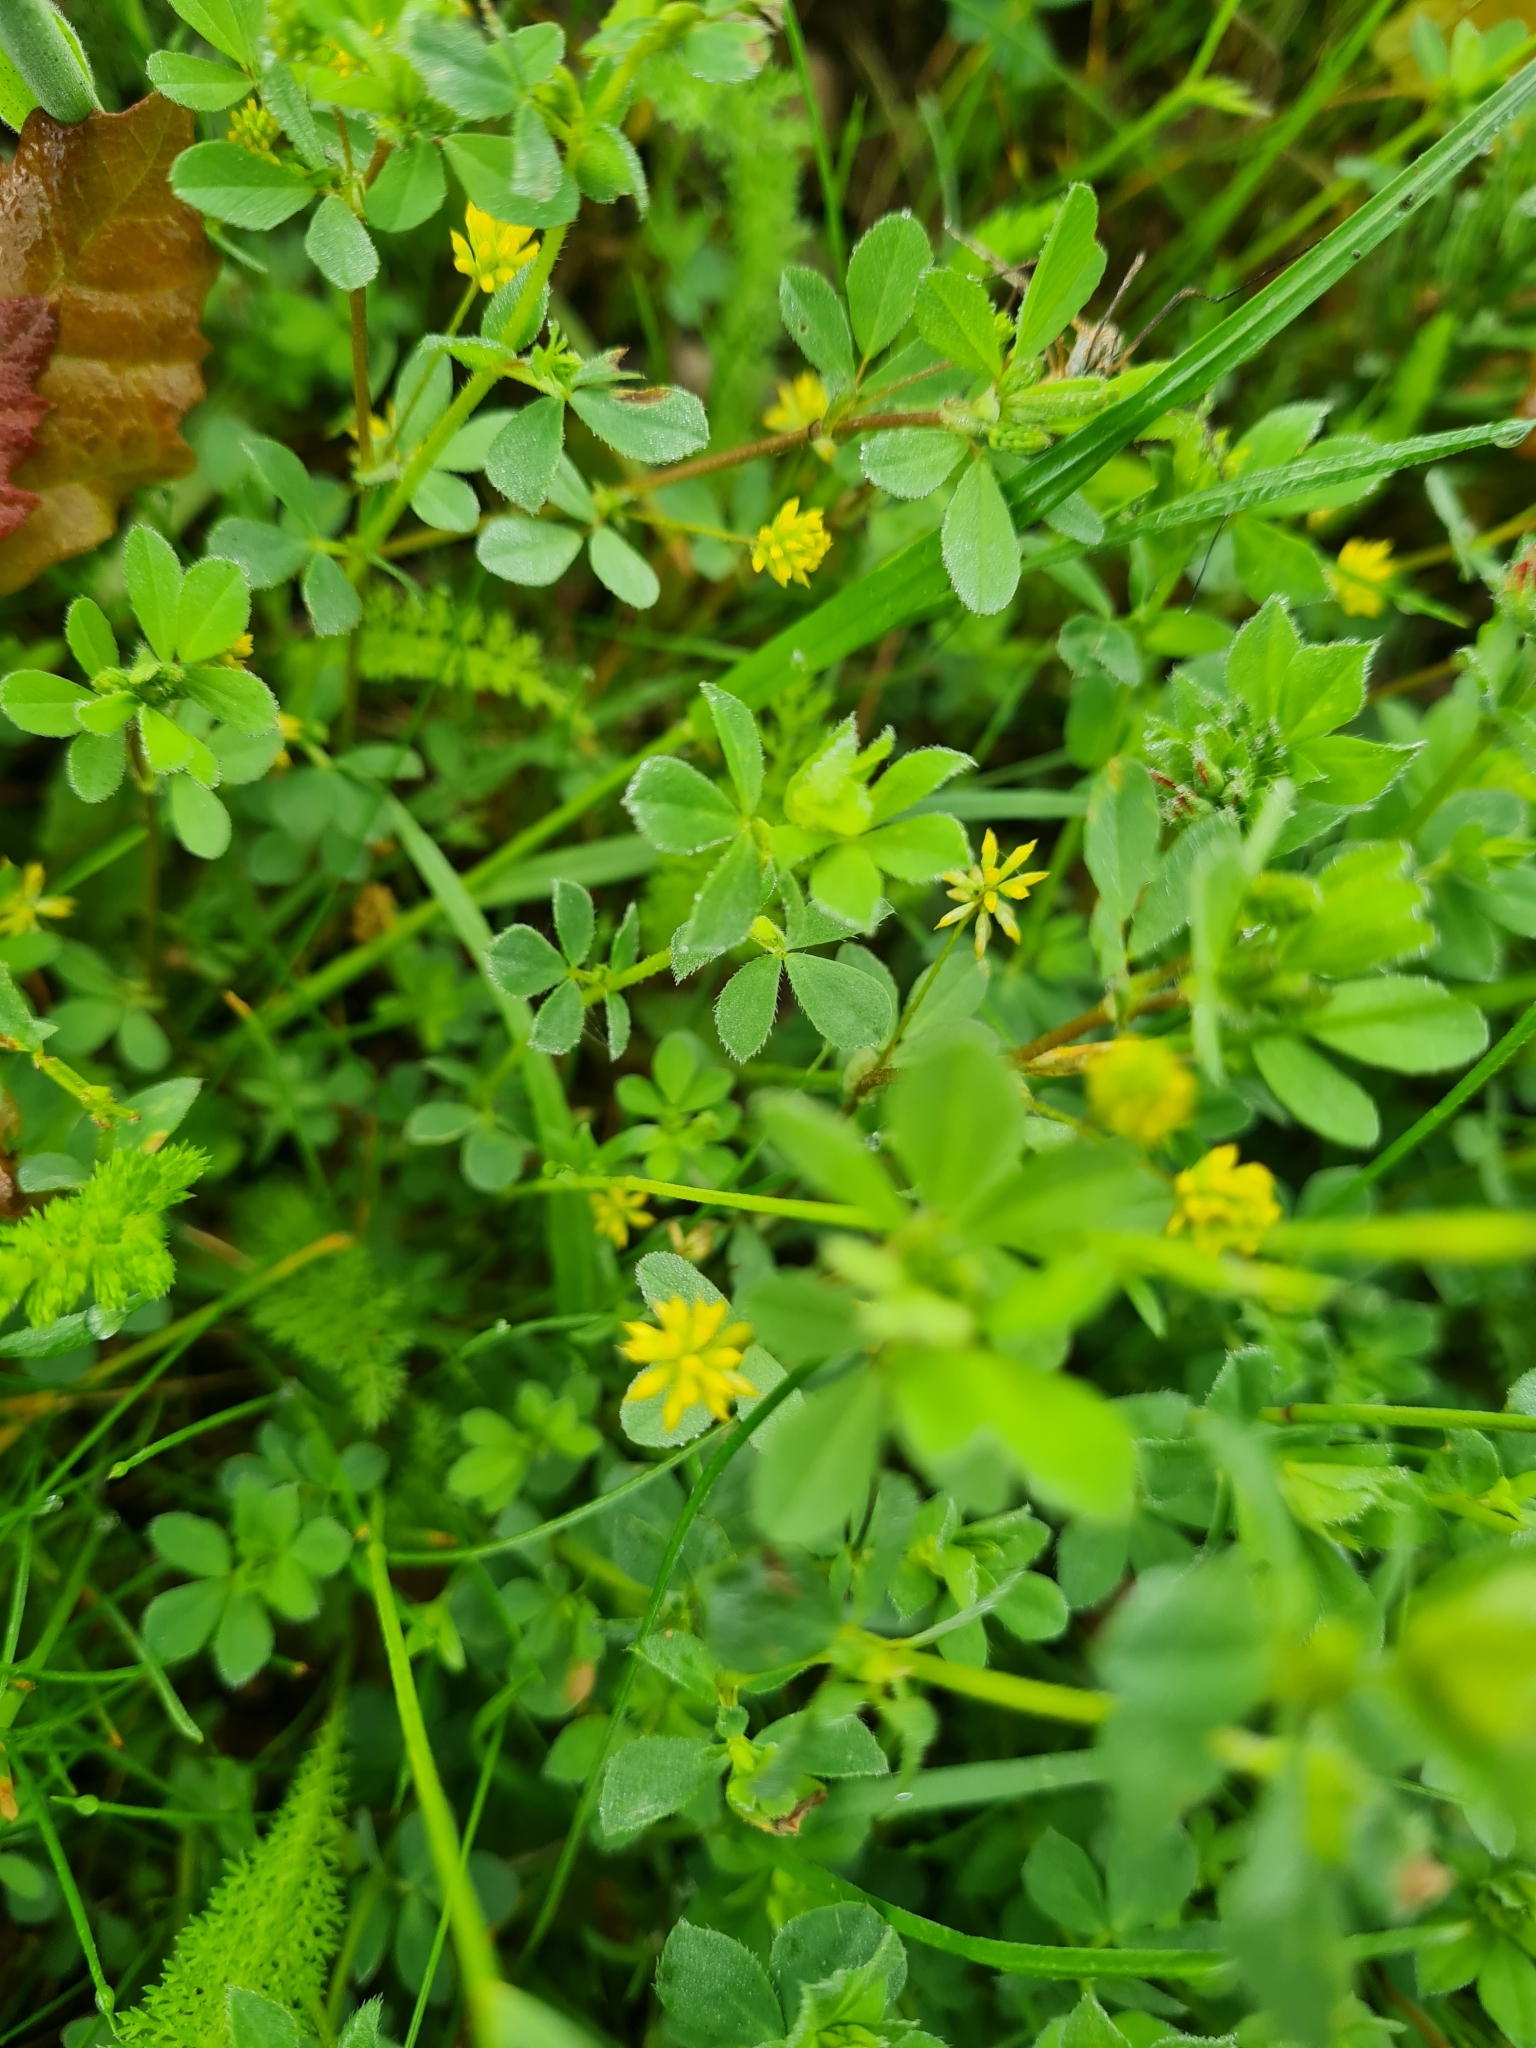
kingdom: Plantae
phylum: Tracheophyta
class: Magnoliopsida
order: Fabales
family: Fabaceae
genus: Trifolium
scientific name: Trifolium dubium
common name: Suckling clover
